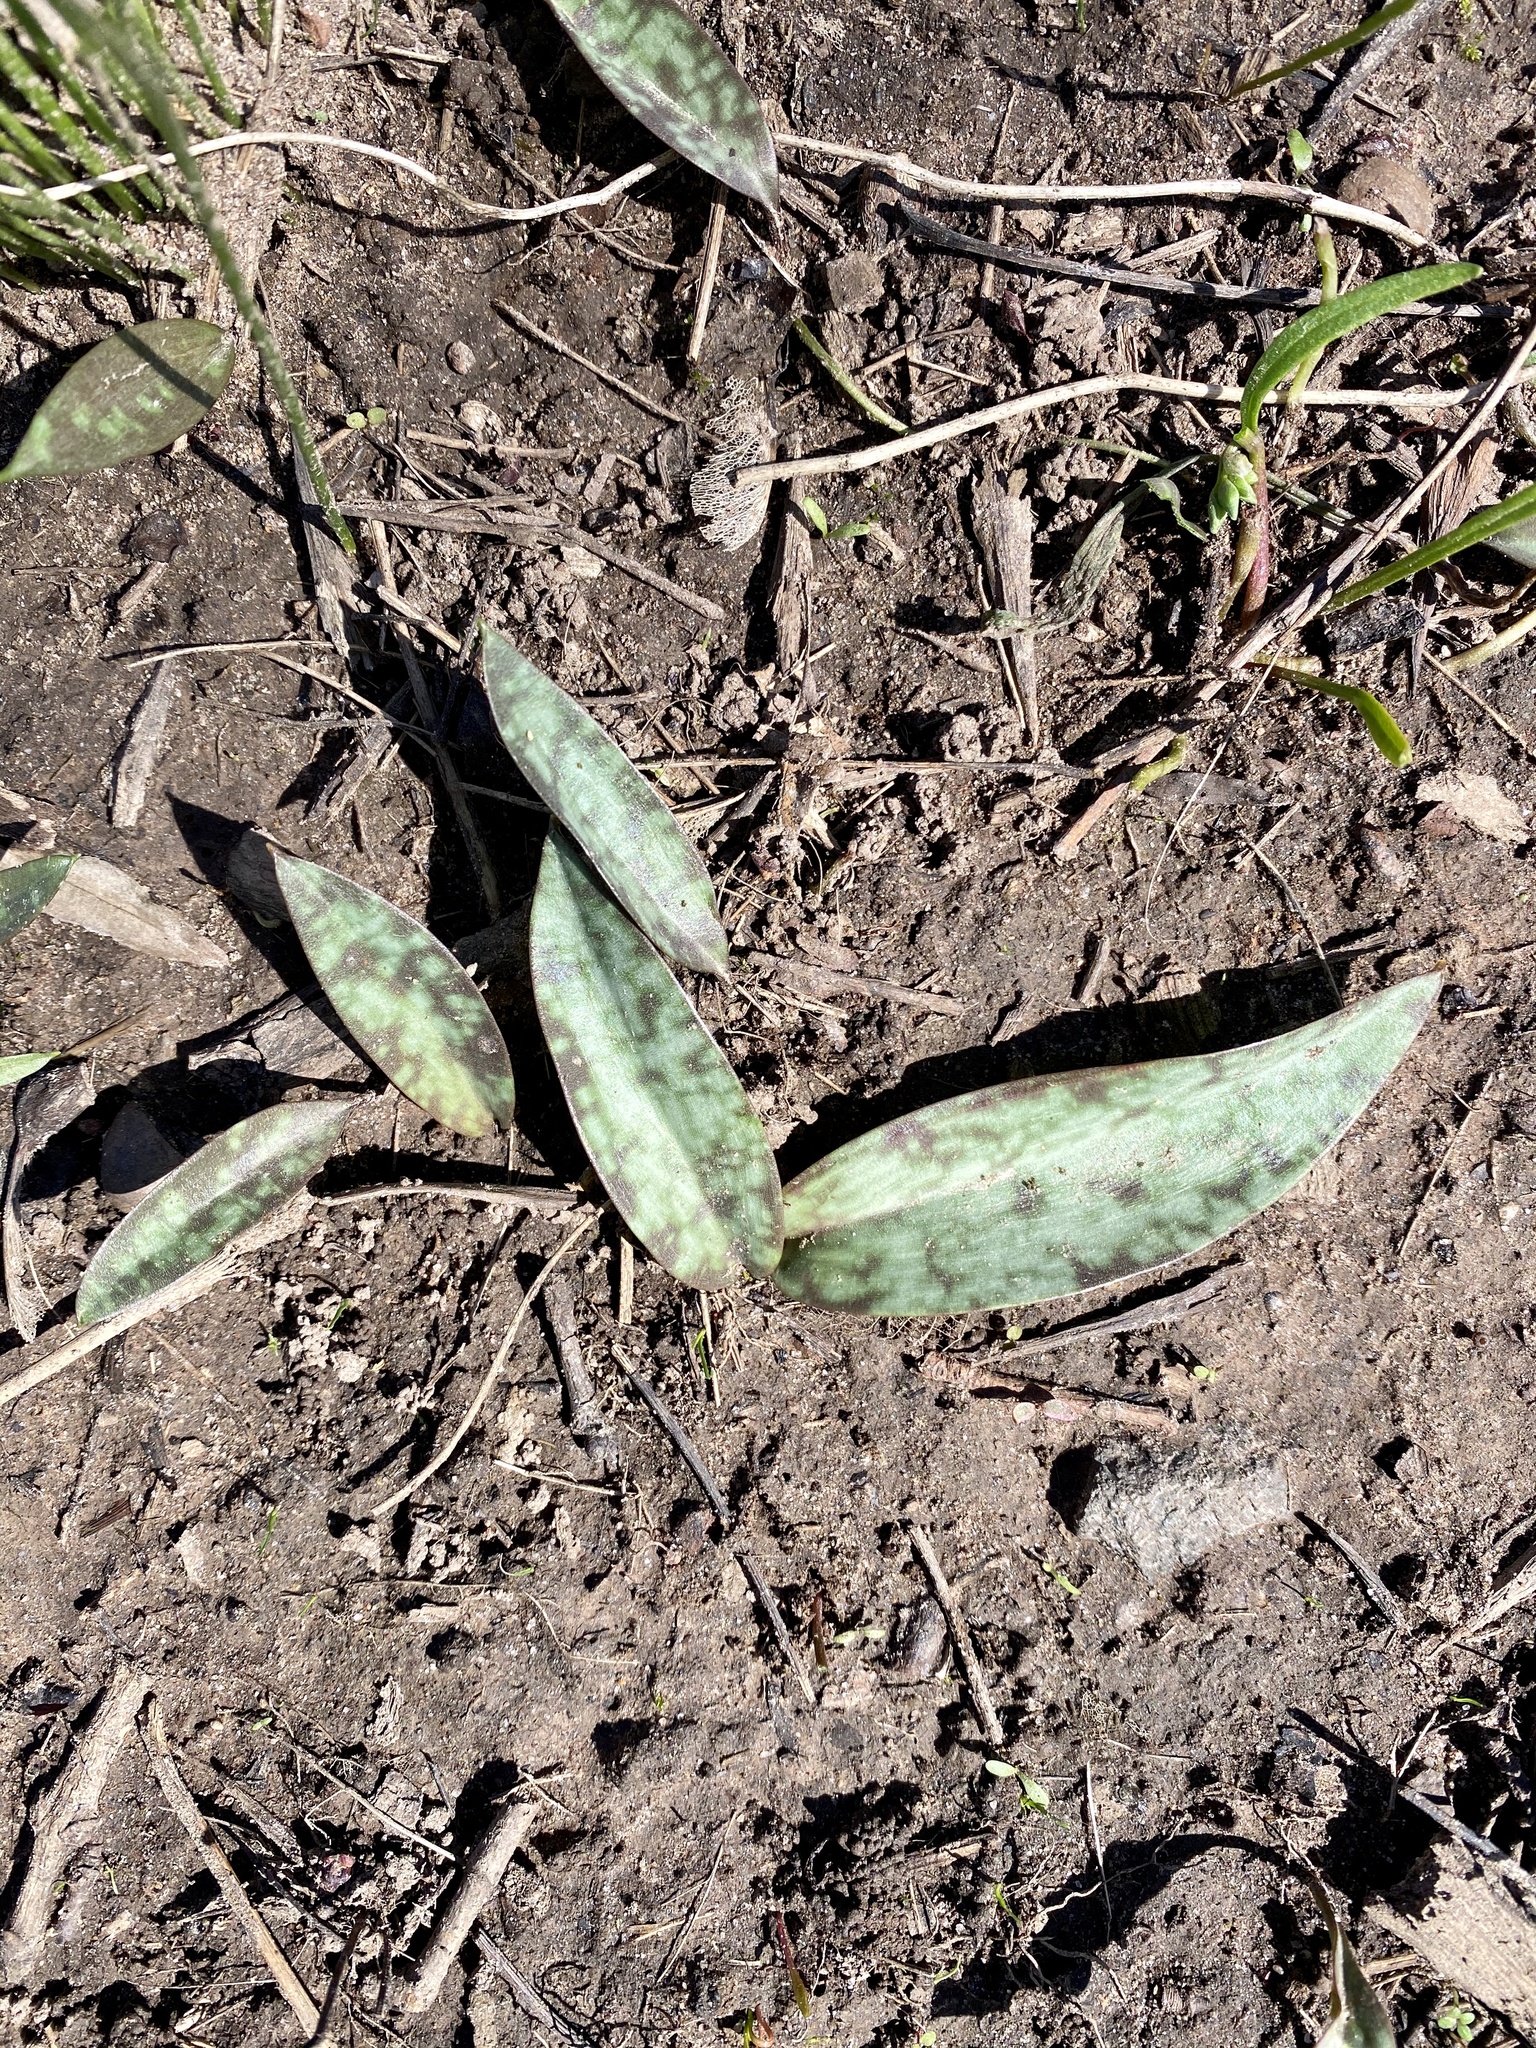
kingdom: Plantae
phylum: Tracheophyta
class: Liliopsida
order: Liliales
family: Liliaceae
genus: Erythronium
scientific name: Erythronium americanum
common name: Yellow adder's-tongue
